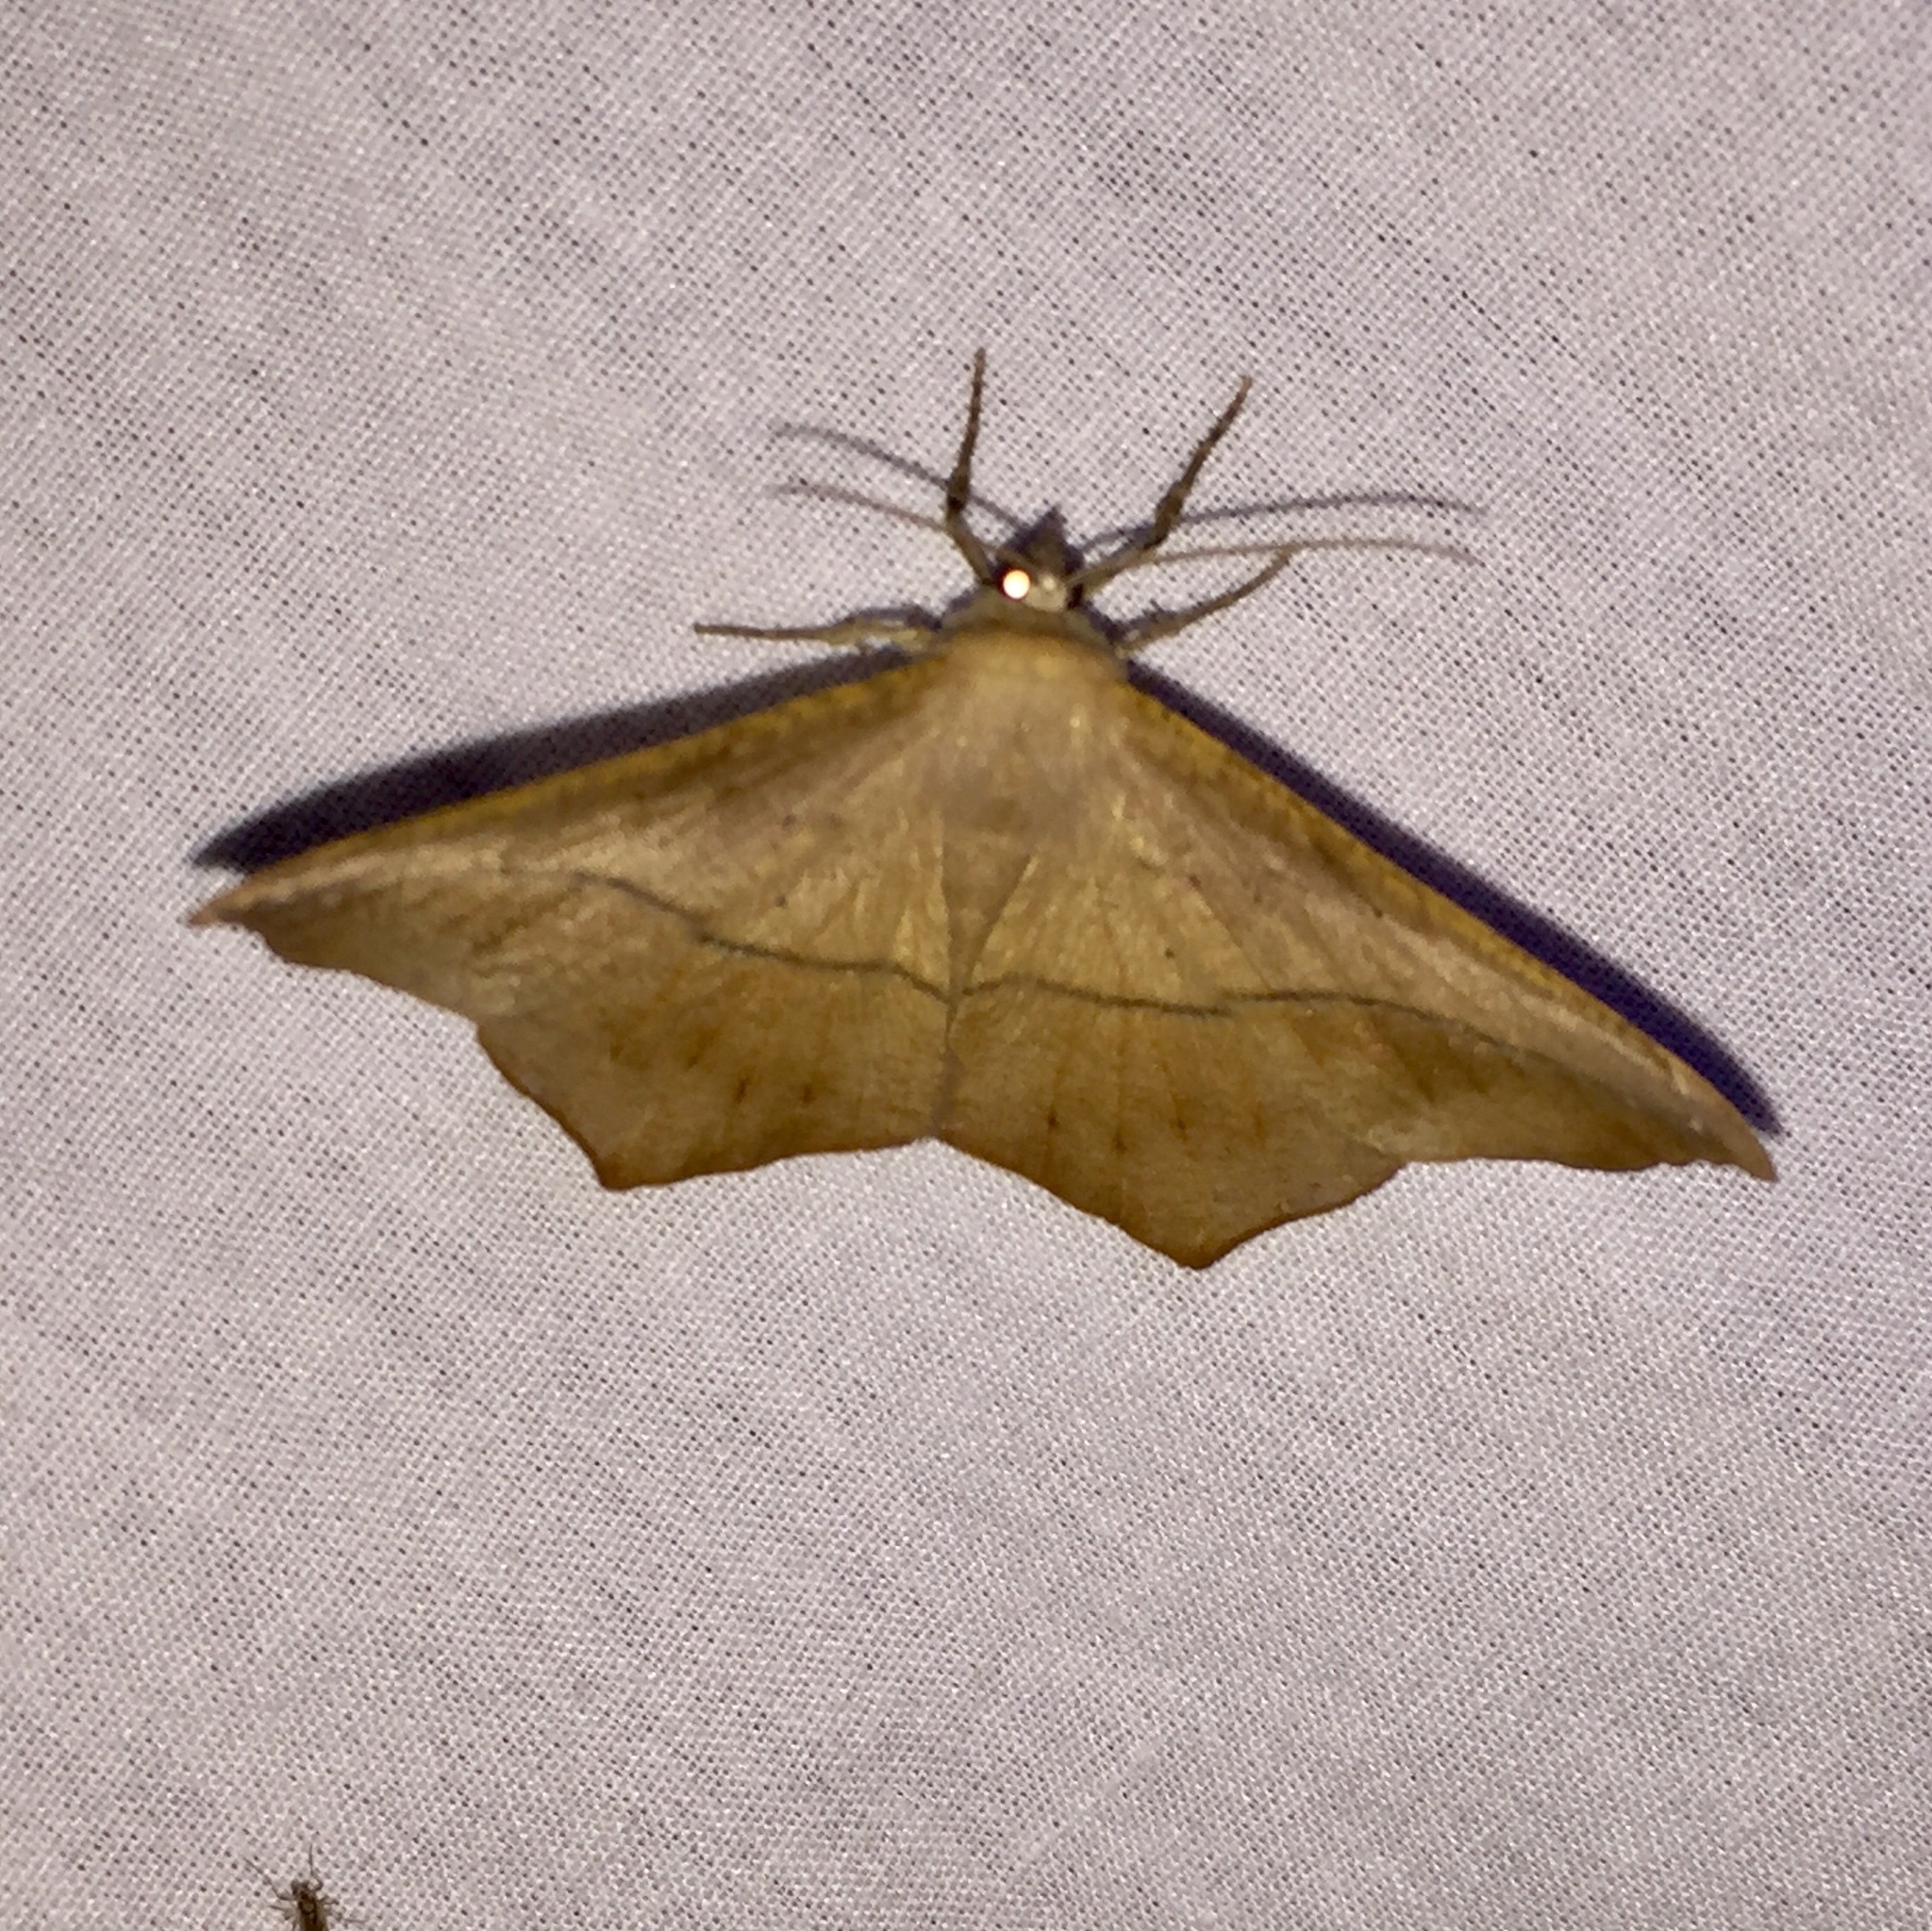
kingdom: Animalia
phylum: Arthropoda
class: Insecta
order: Lepidoptera
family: Geometridae
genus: Prochoerodes
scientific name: Prochoerodes lineola
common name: Large maple spanworm
